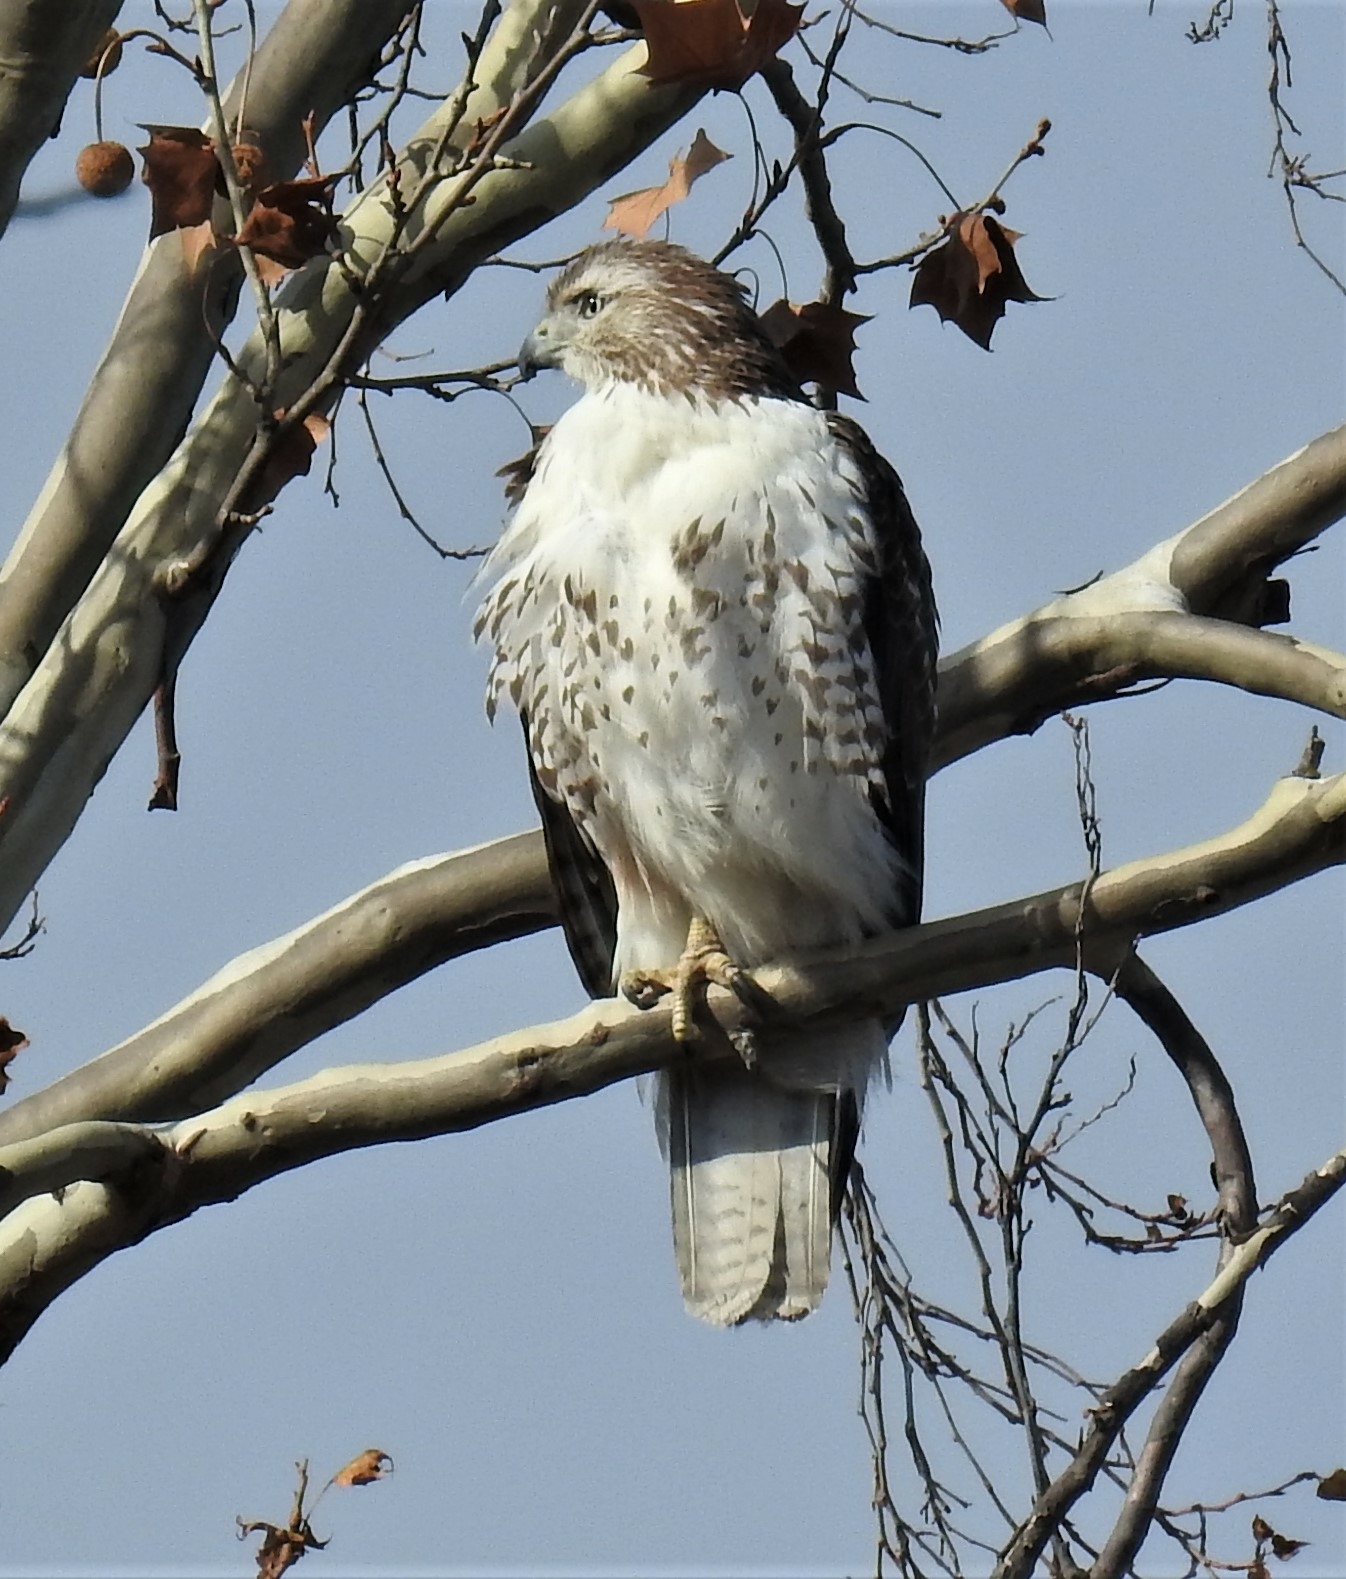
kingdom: Animalia
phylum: Chordata
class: Aves
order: Accipitriformes
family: Accipitridae
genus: Buteo
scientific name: Buteo jamaicensis
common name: Red-tailed hawk
